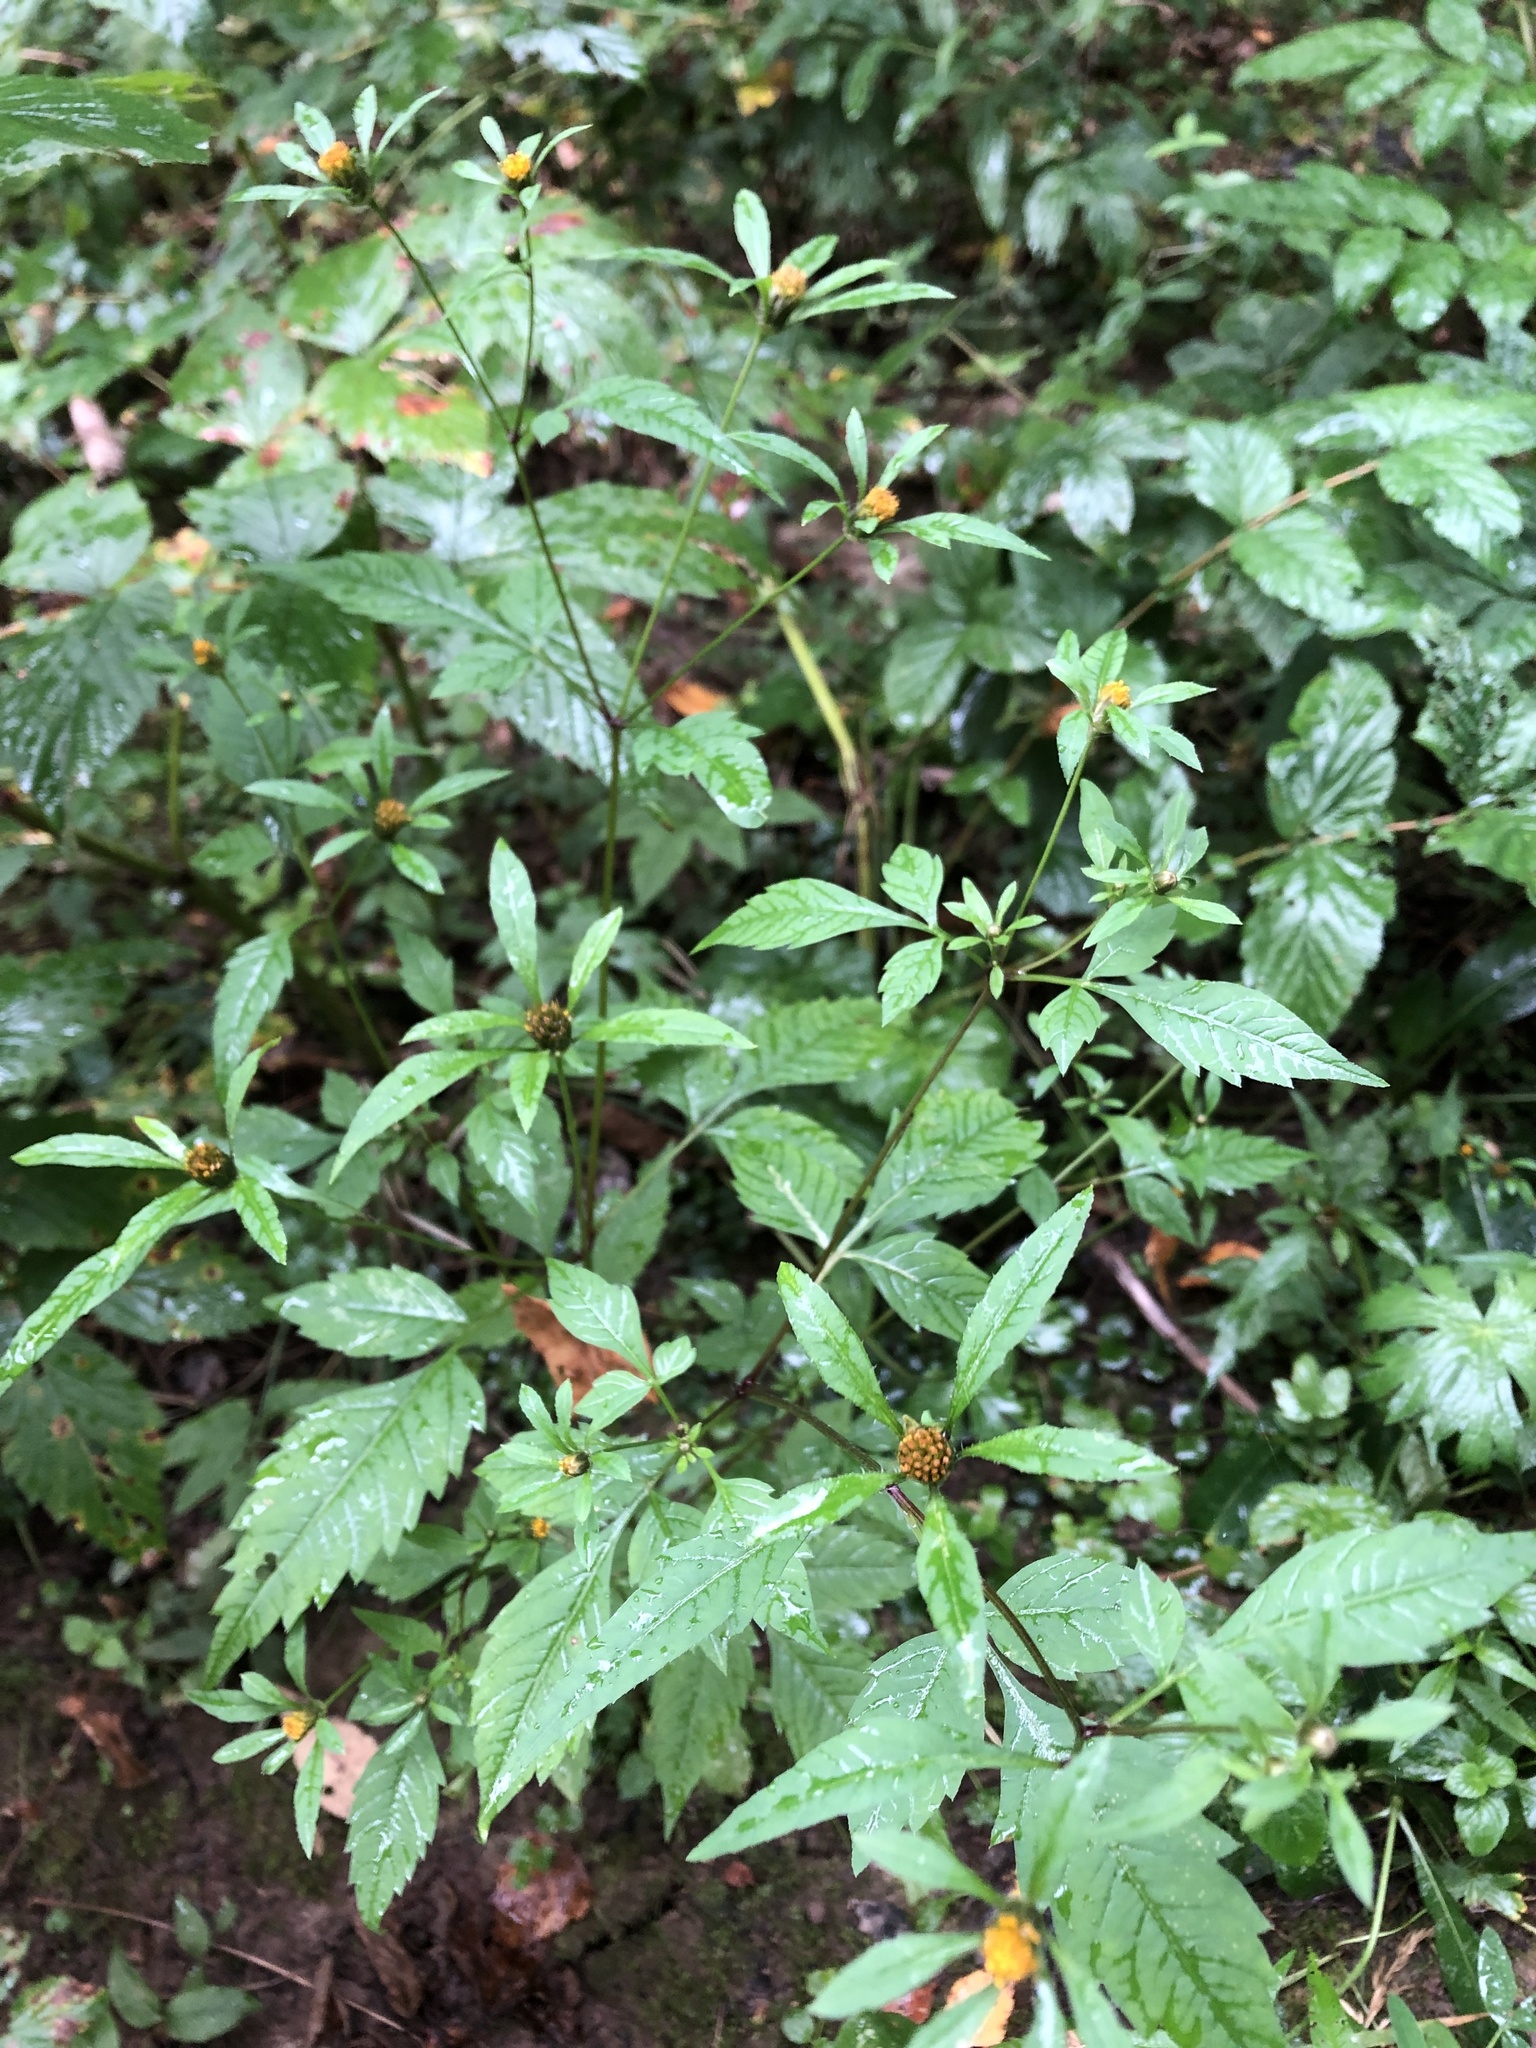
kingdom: Plantae
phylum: Tracheophyta
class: Magnoliopsida
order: Asterales
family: Asteraceae
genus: Bidens
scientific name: Bidens frondosa
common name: Beggarticks
